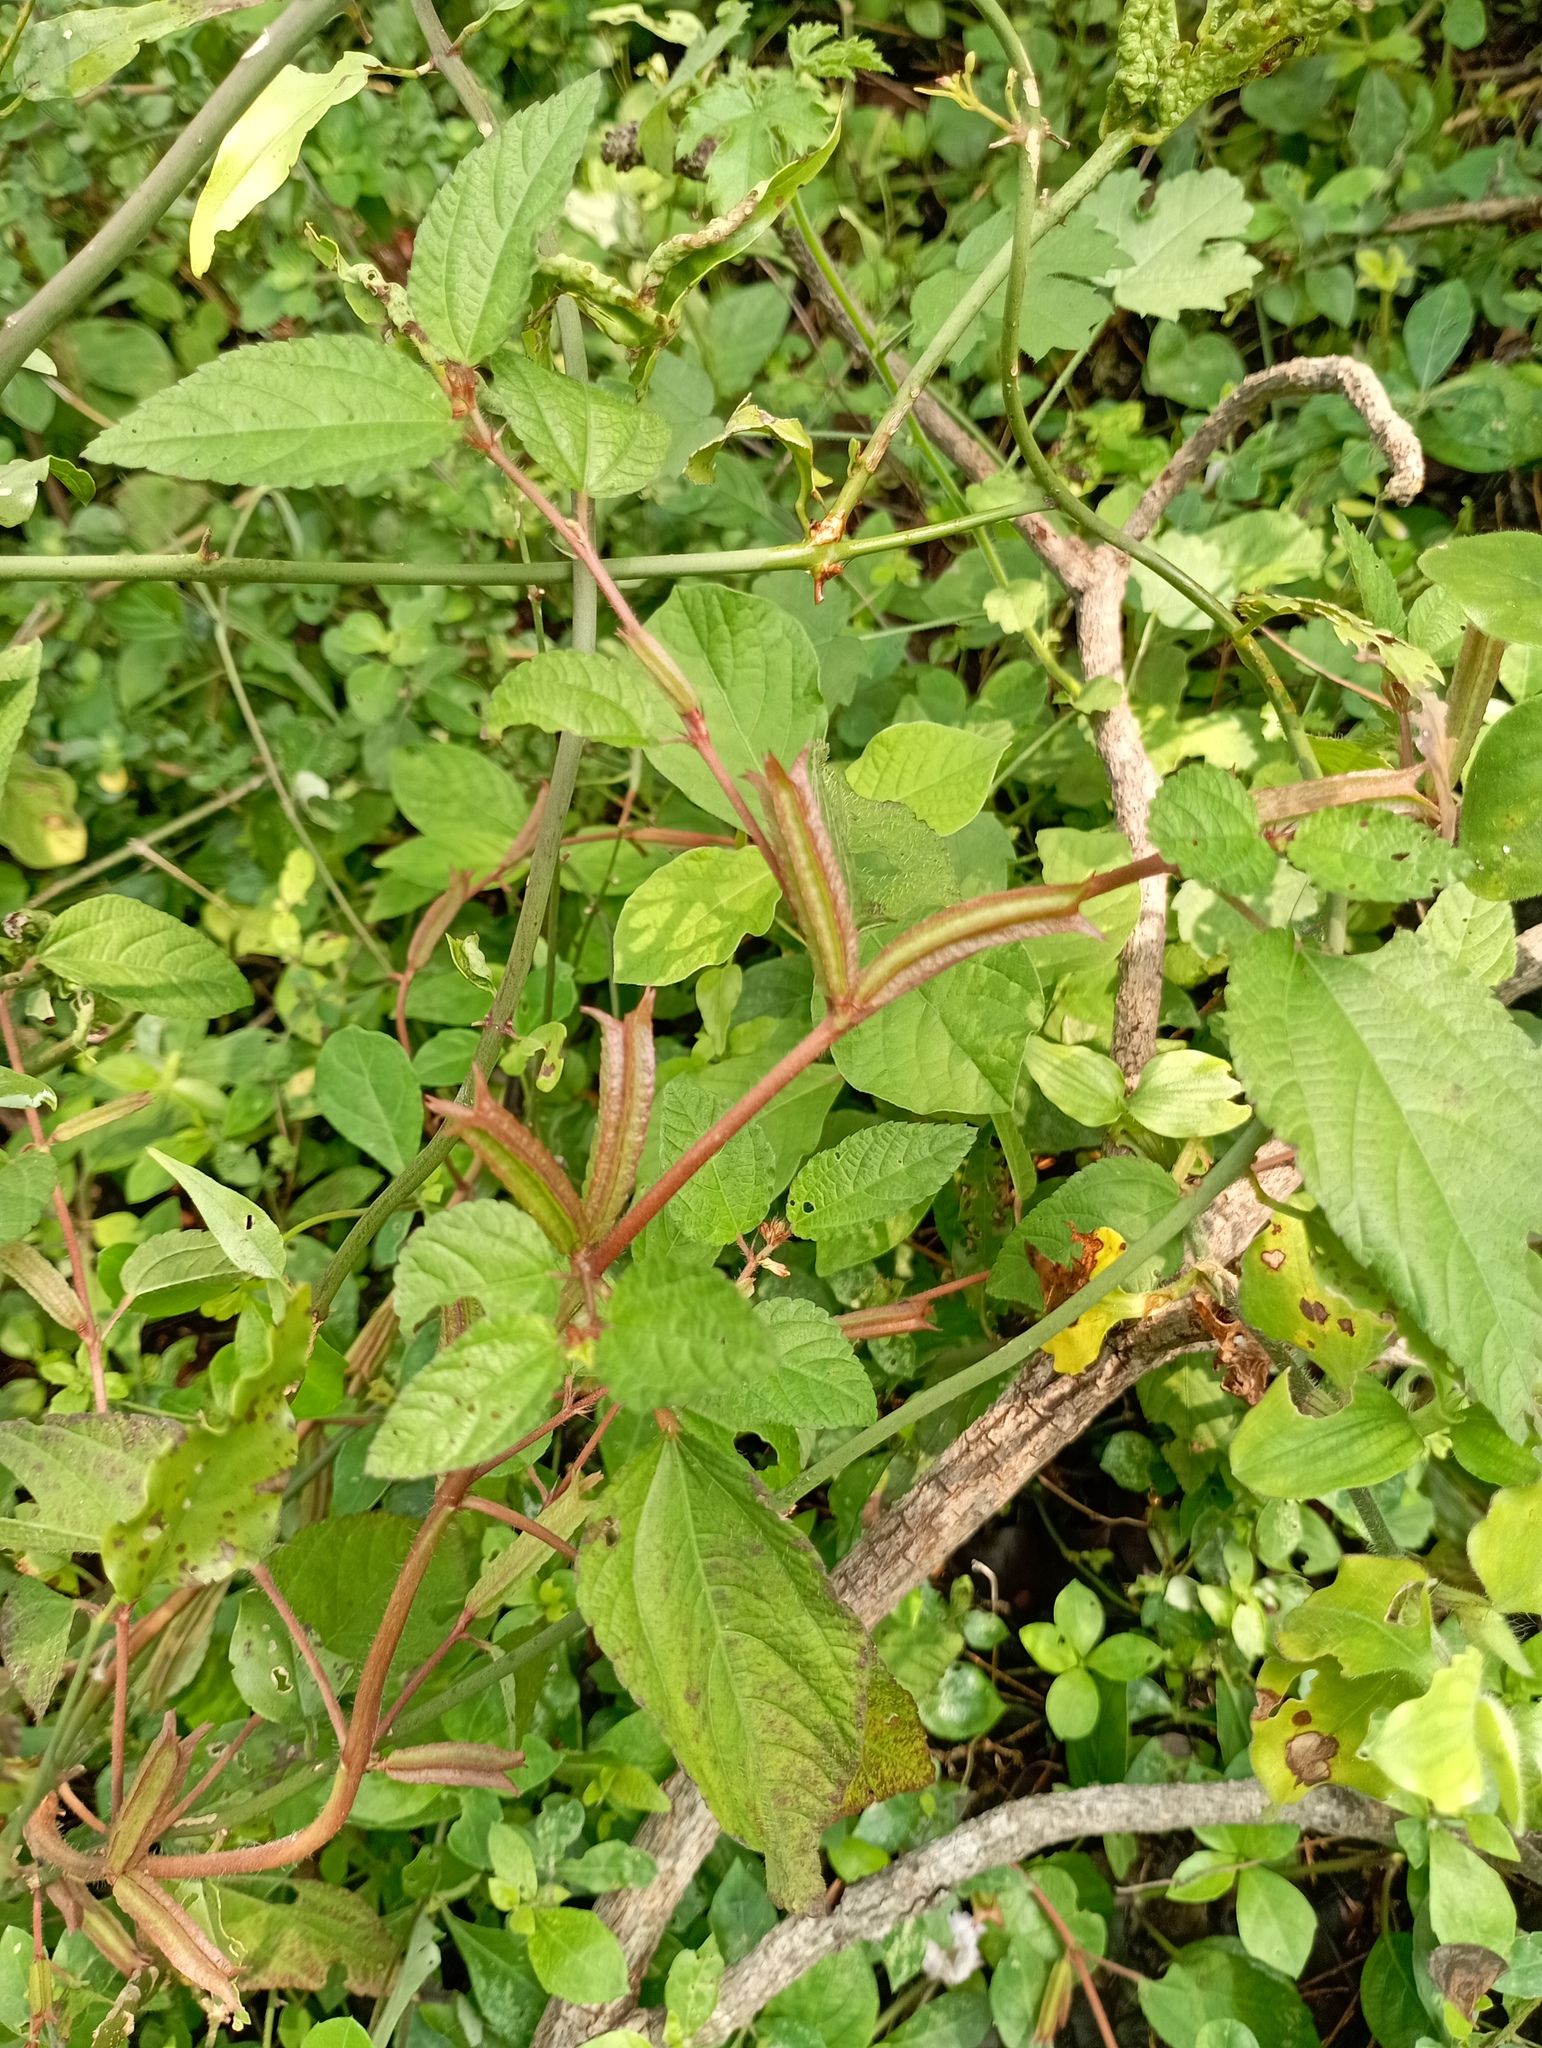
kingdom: Plantae
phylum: Tracheophyta
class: Magnoliopsida
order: Malvales
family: Malvaceae
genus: Corchorus
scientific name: Corchorus aestuans
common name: Jute
